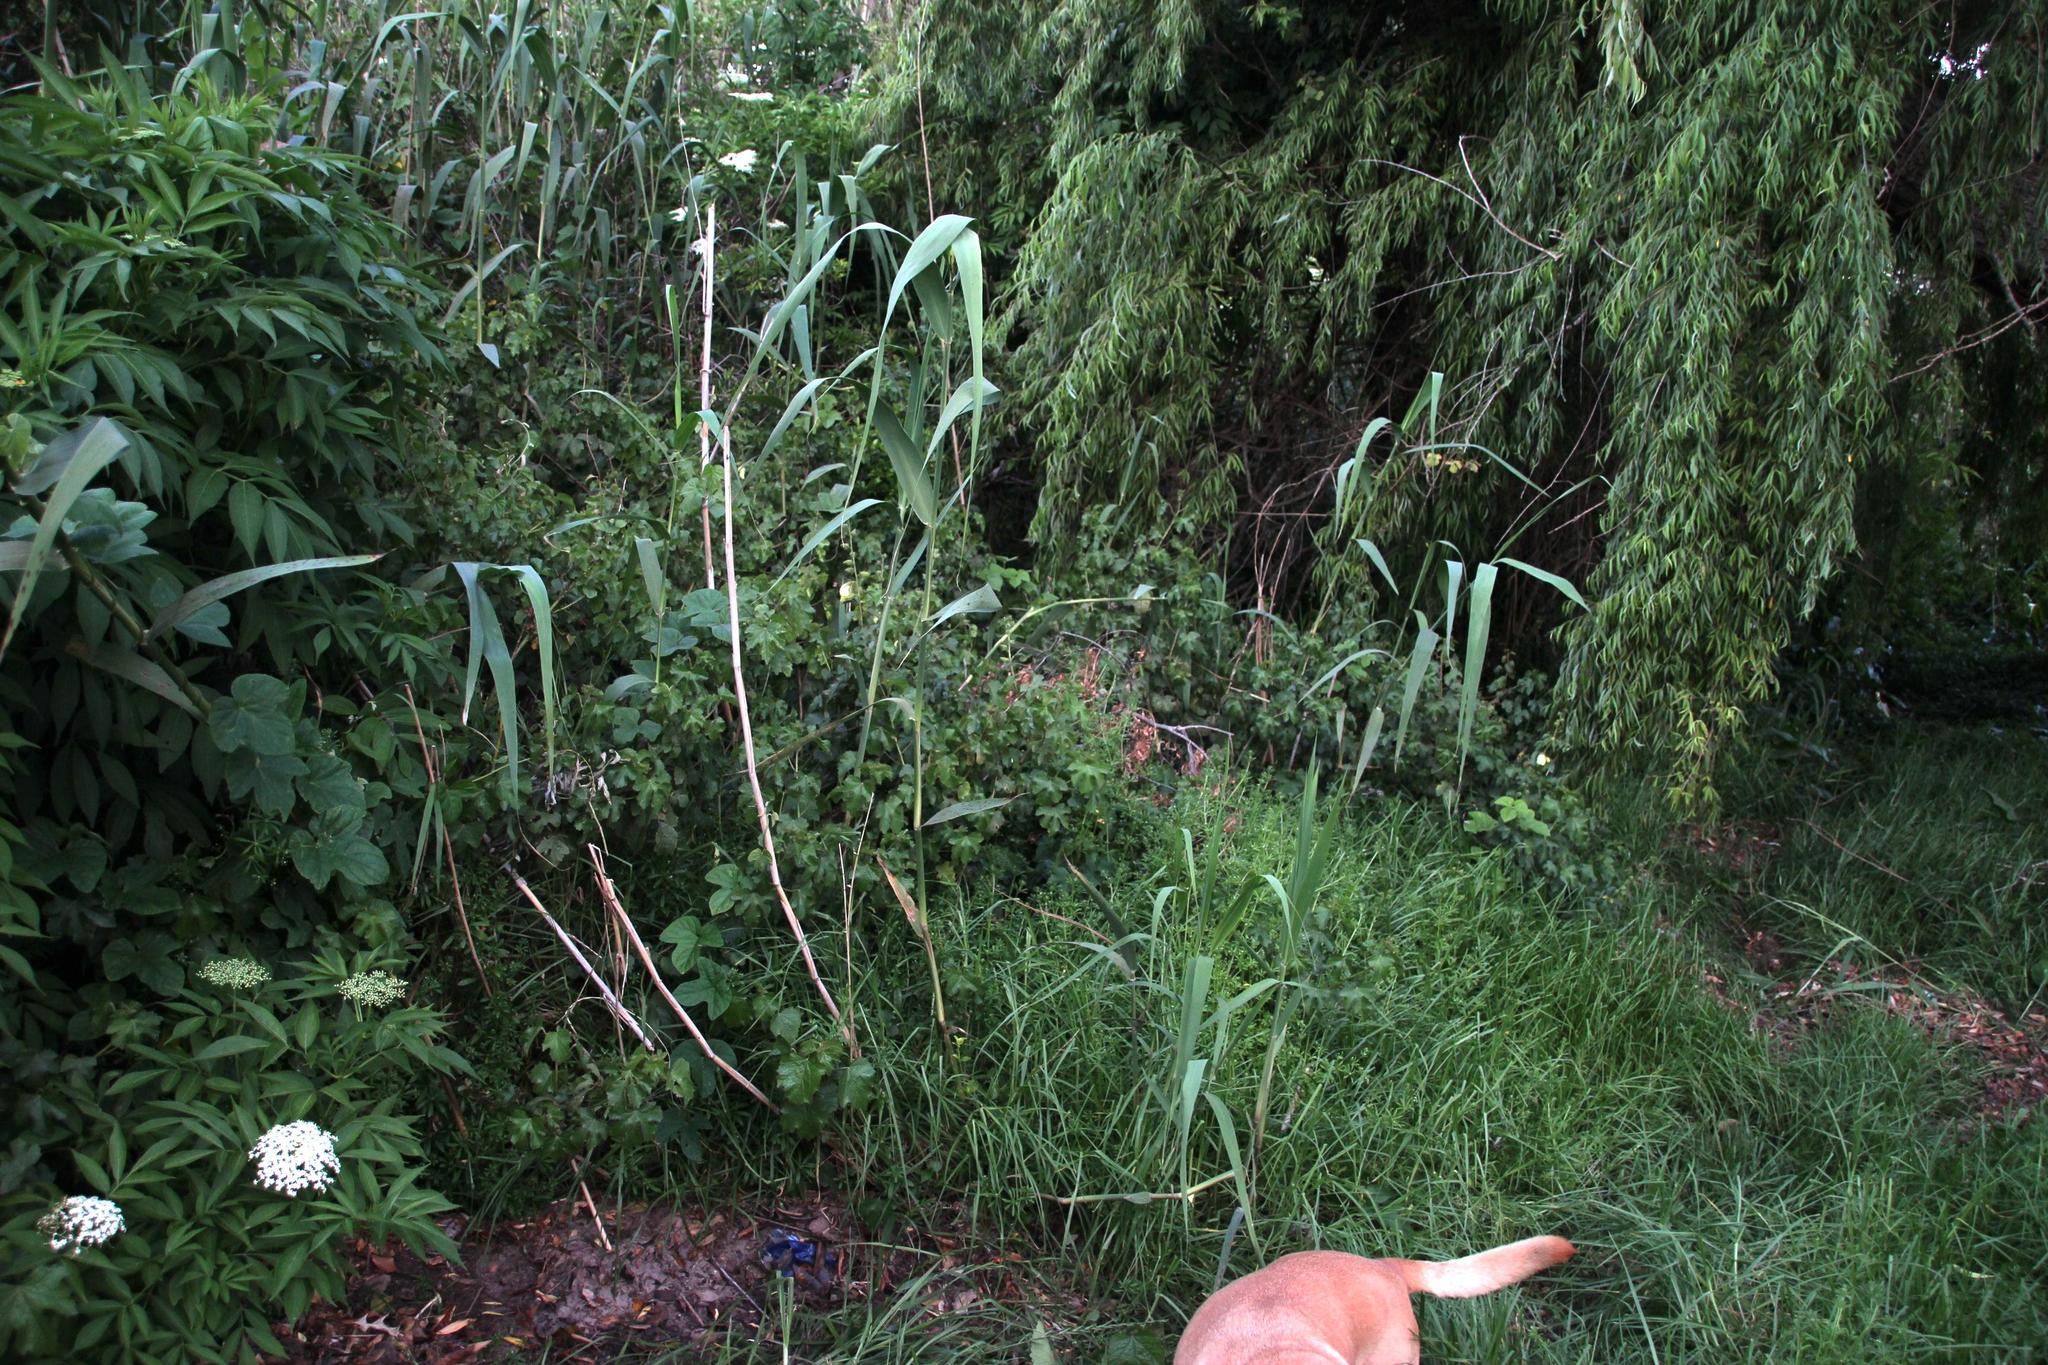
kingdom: Plantae
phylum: Tracheophyta
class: Magnoliopsida
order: Malvales
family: Malvaceae
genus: Hibiscus
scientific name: Hibiscus diversifolius
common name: Cape hibiscus
